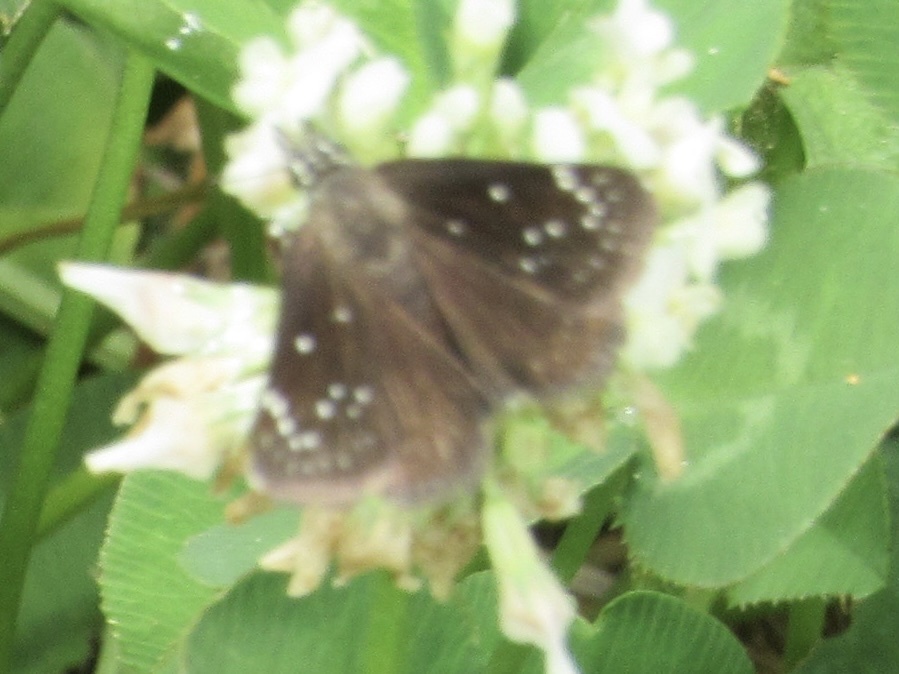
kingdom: Animalia
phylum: Arthropoda
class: Insecta
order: Lepidoptera
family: Hesperiidae
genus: Pholisora
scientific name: Pholisora catullus
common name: Common sootywing
